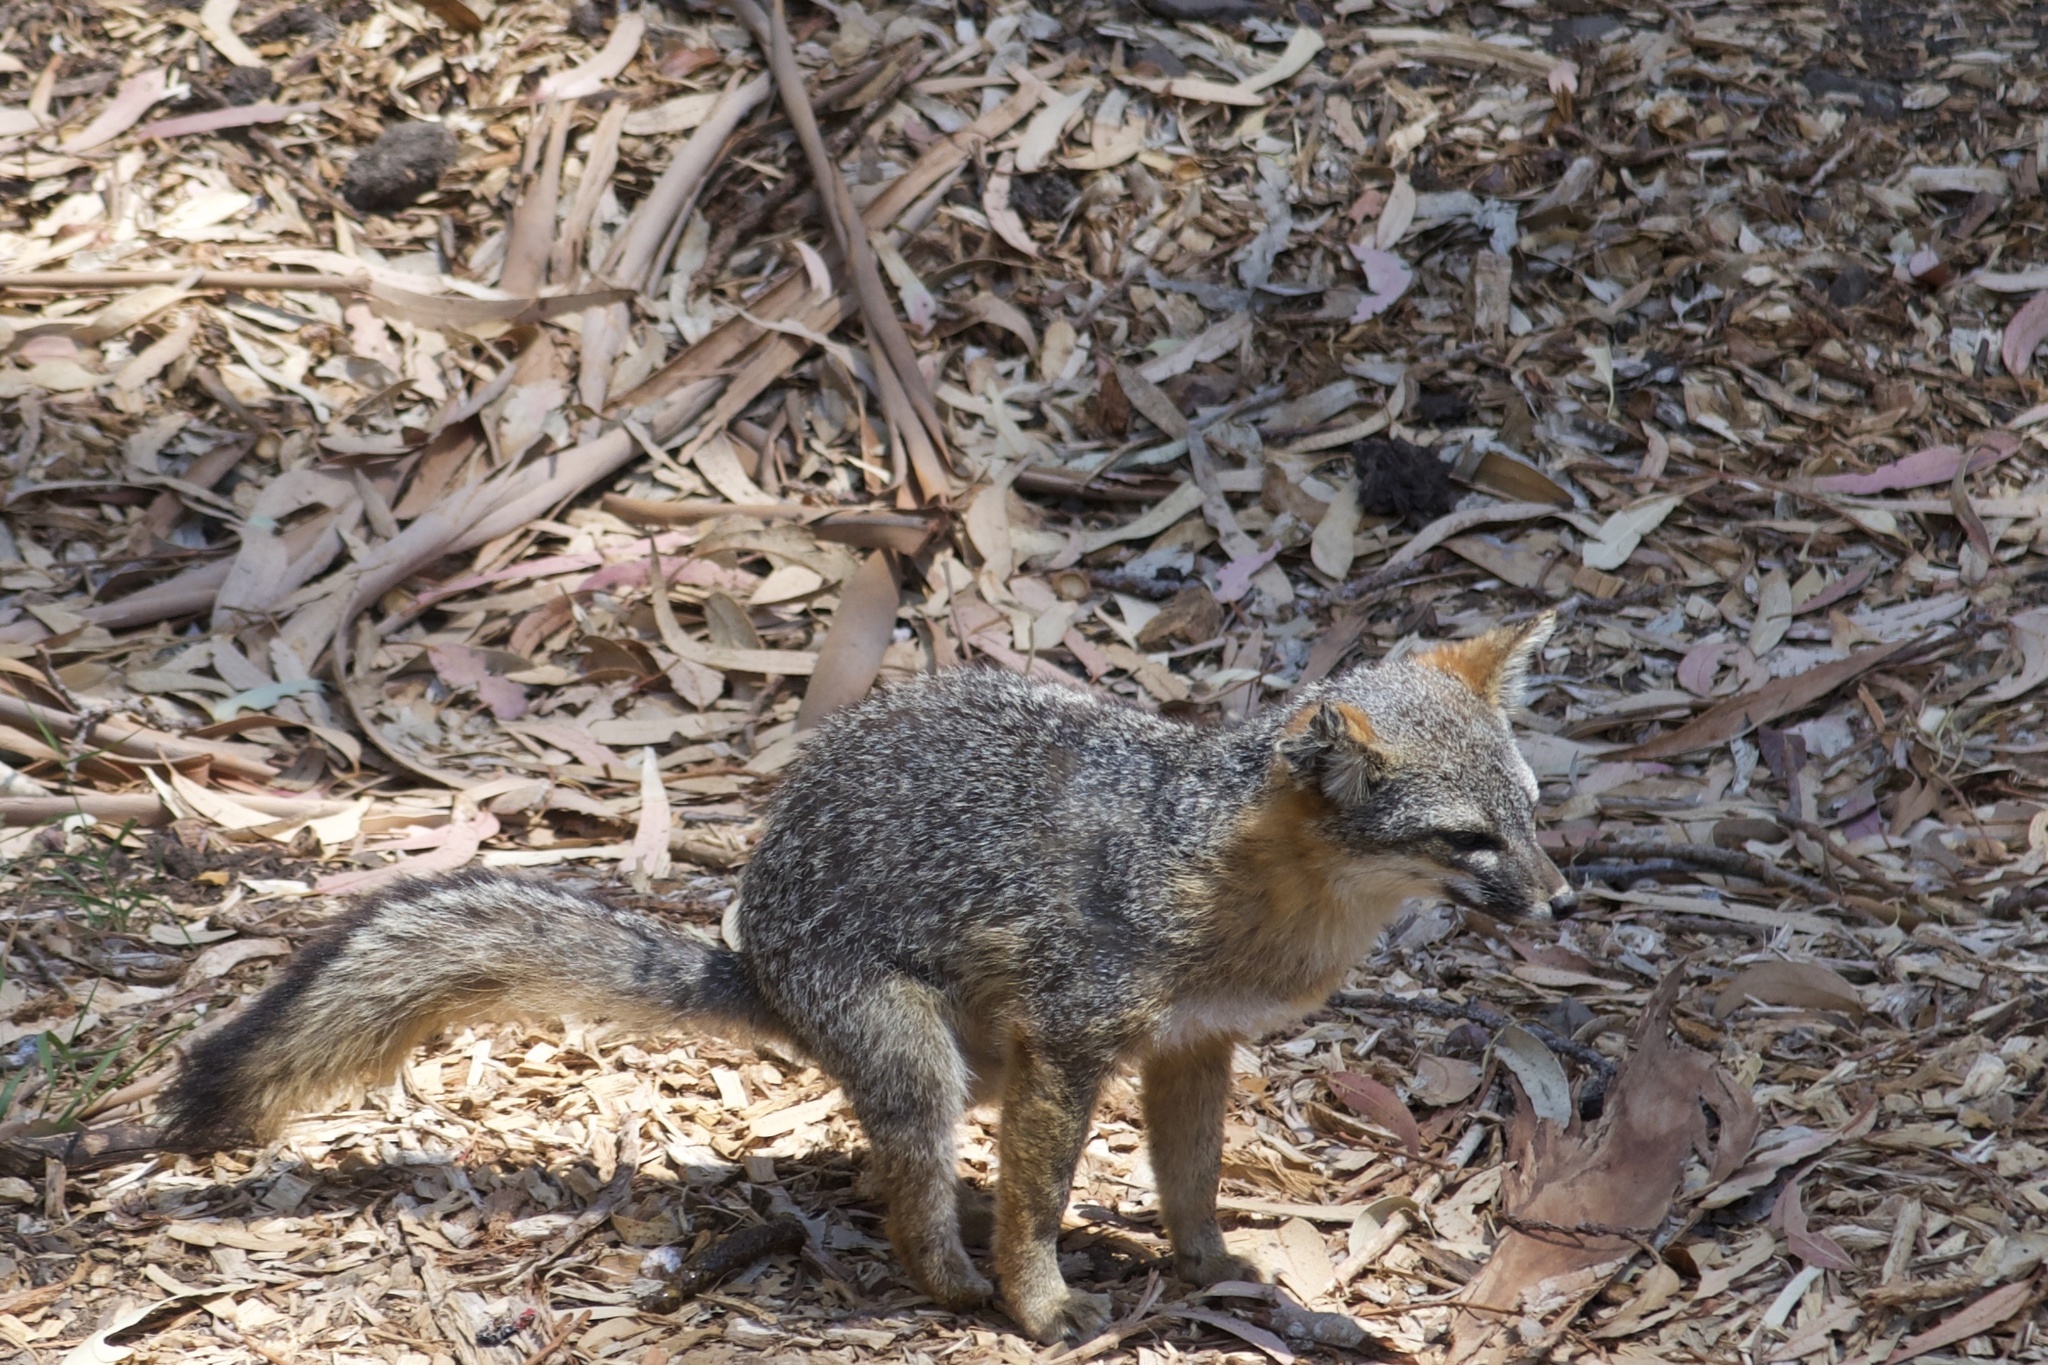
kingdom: Animalia
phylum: Chordata
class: Mammalia
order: Carnivora
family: Canidae
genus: Urocyon
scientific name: Urocyon littoralis
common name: Island gray fox
